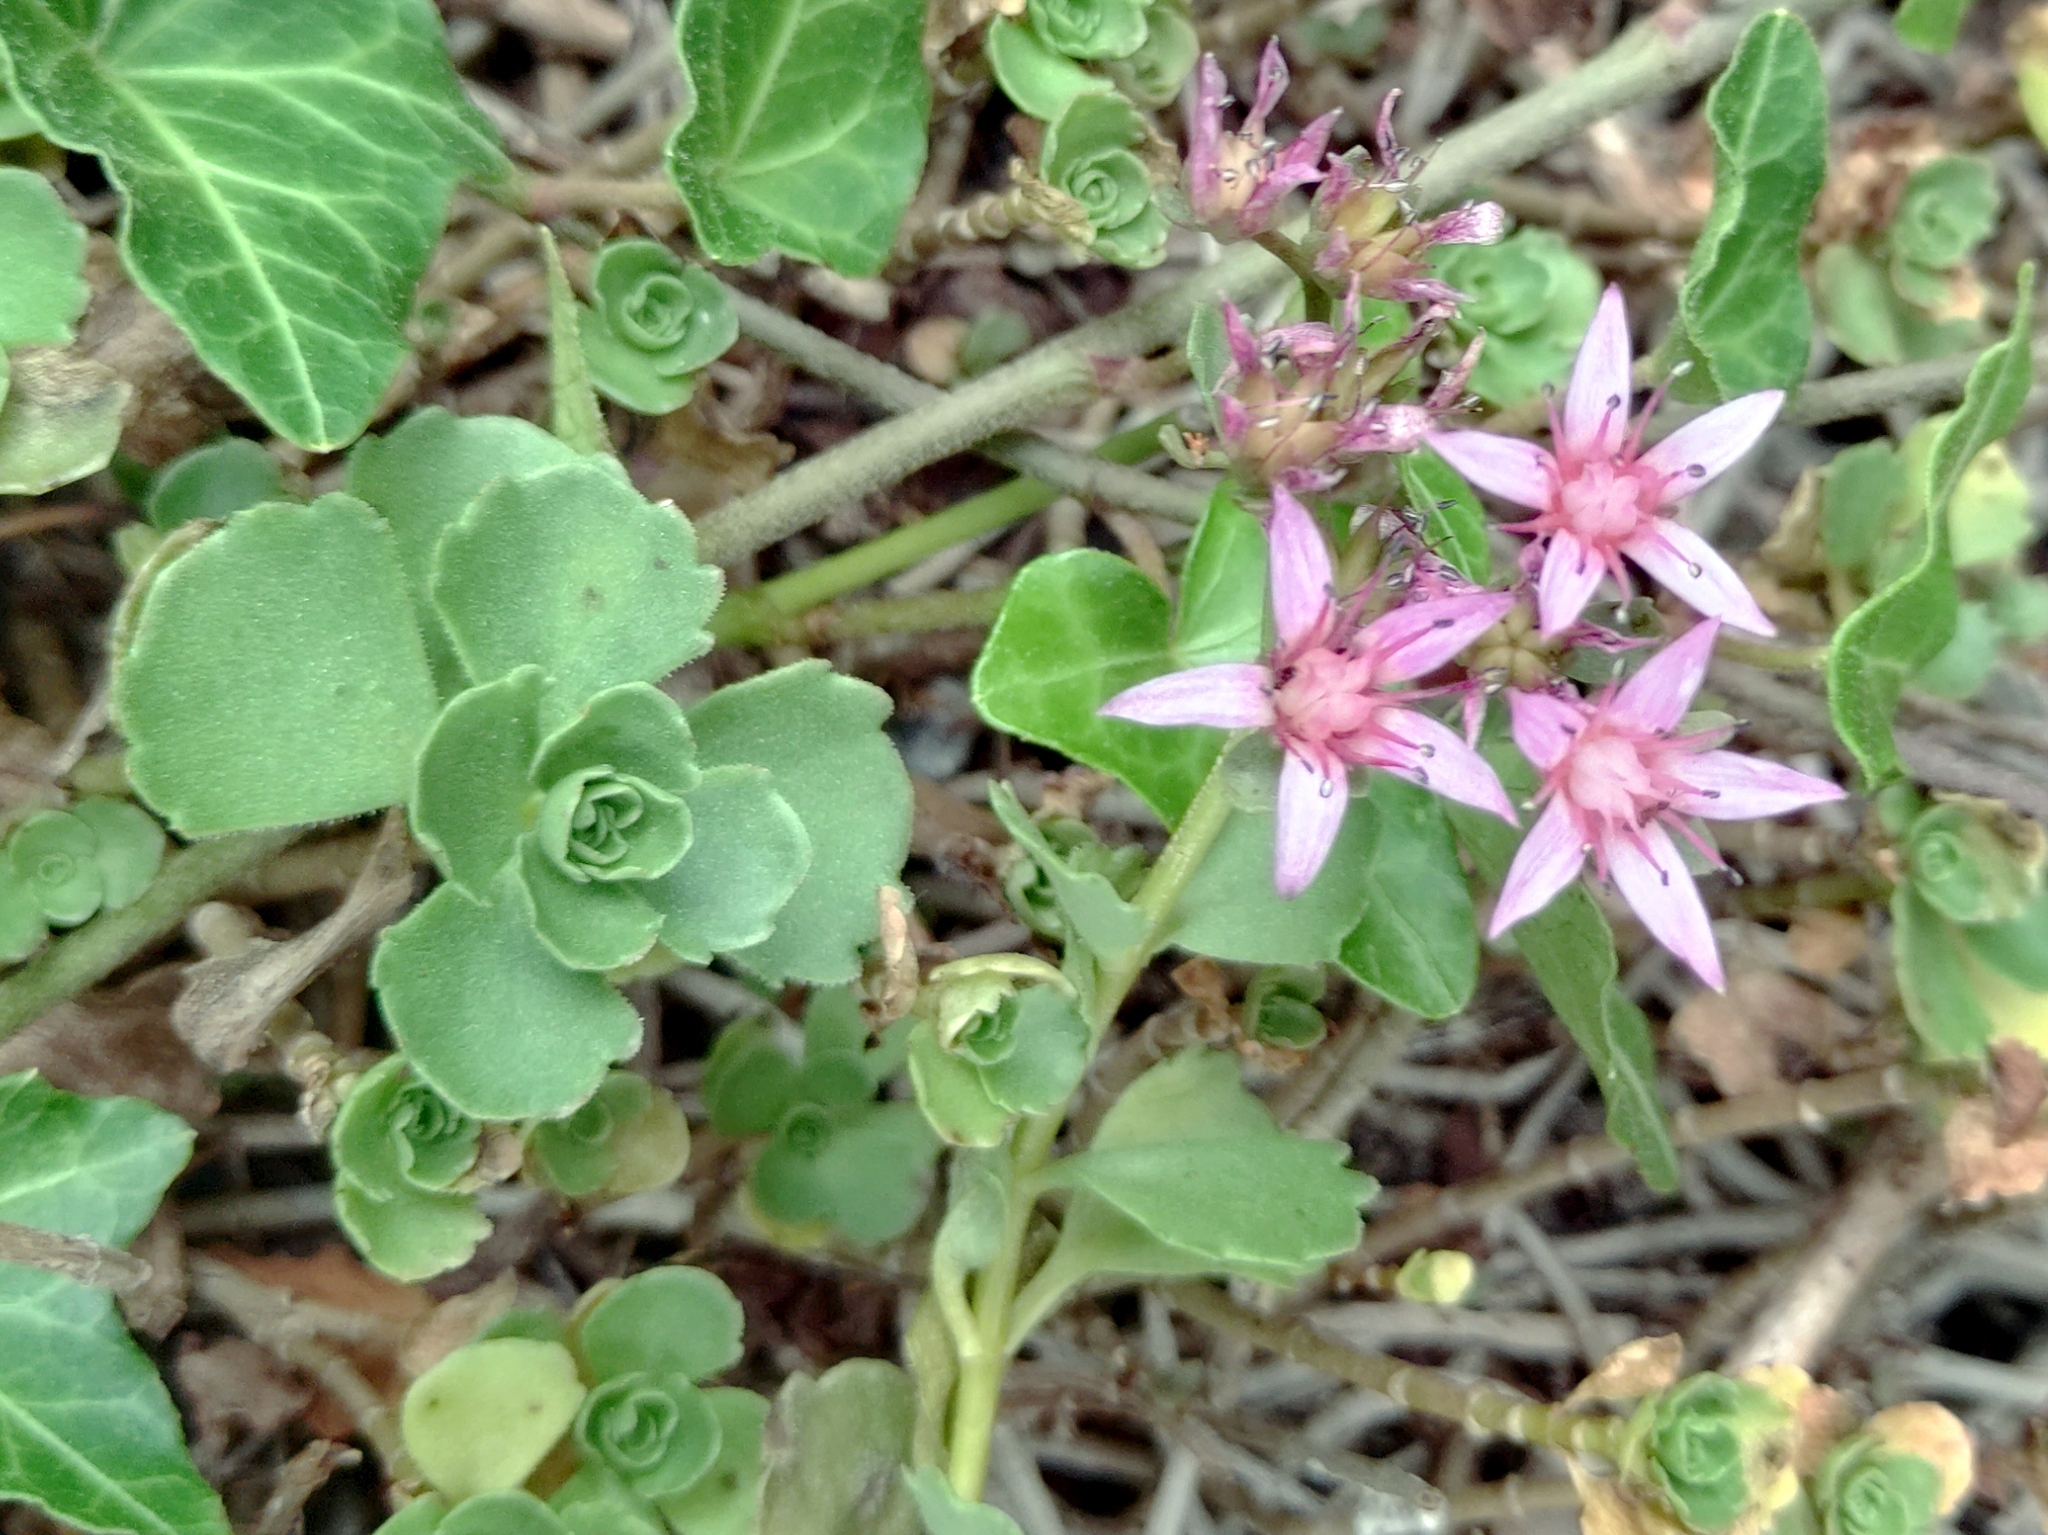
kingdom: Plantae
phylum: Tracheophyta
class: Magnoliopsida
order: Saxifragales
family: Crassulaceae
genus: Phedimus
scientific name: Phedimus spurius
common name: Caucasian stonecrop
